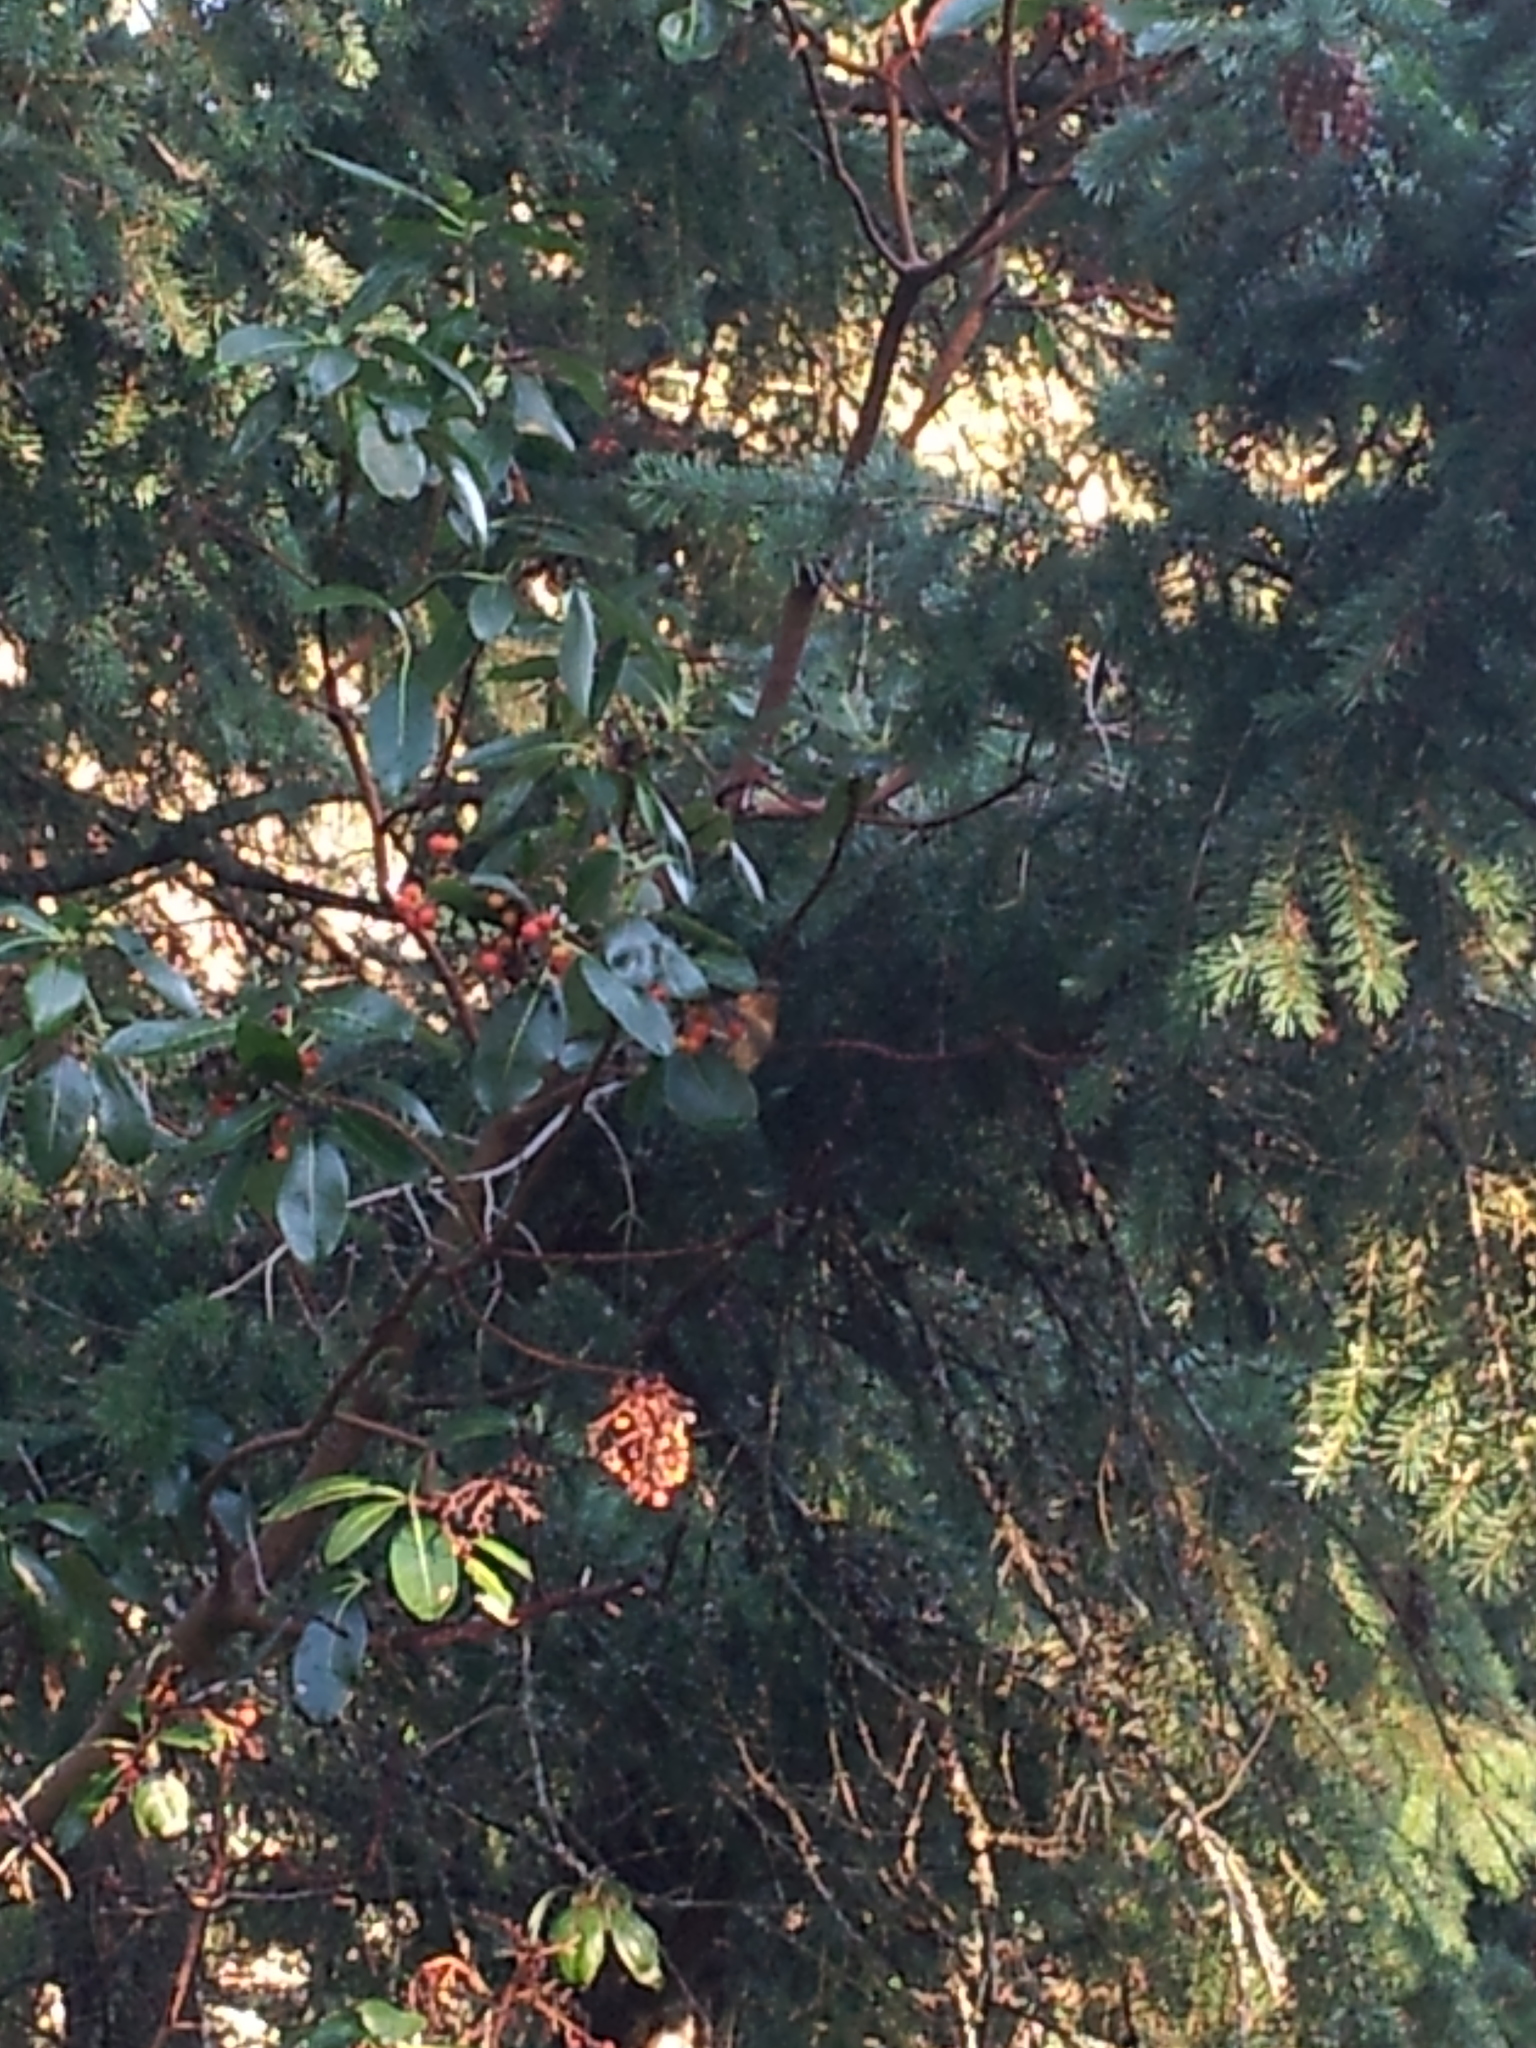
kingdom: Animalia
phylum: Chordata
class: Aves
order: Passeriformes
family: Turdidae
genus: Ixoreus
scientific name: Ixoreus naevius
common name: Varied thrush
